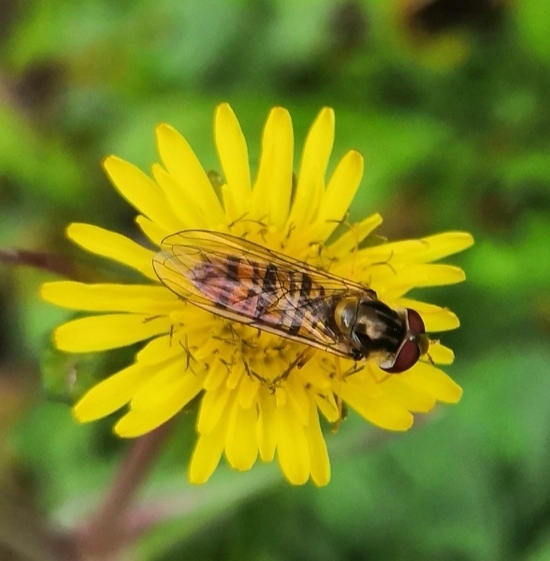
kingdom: Animalia
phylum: Arthropoda
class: Insecta
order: Diptera
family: Syrphidae
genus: Episyrphus
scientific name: Episyrphus balteatus
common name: Marmalade hoverfly
